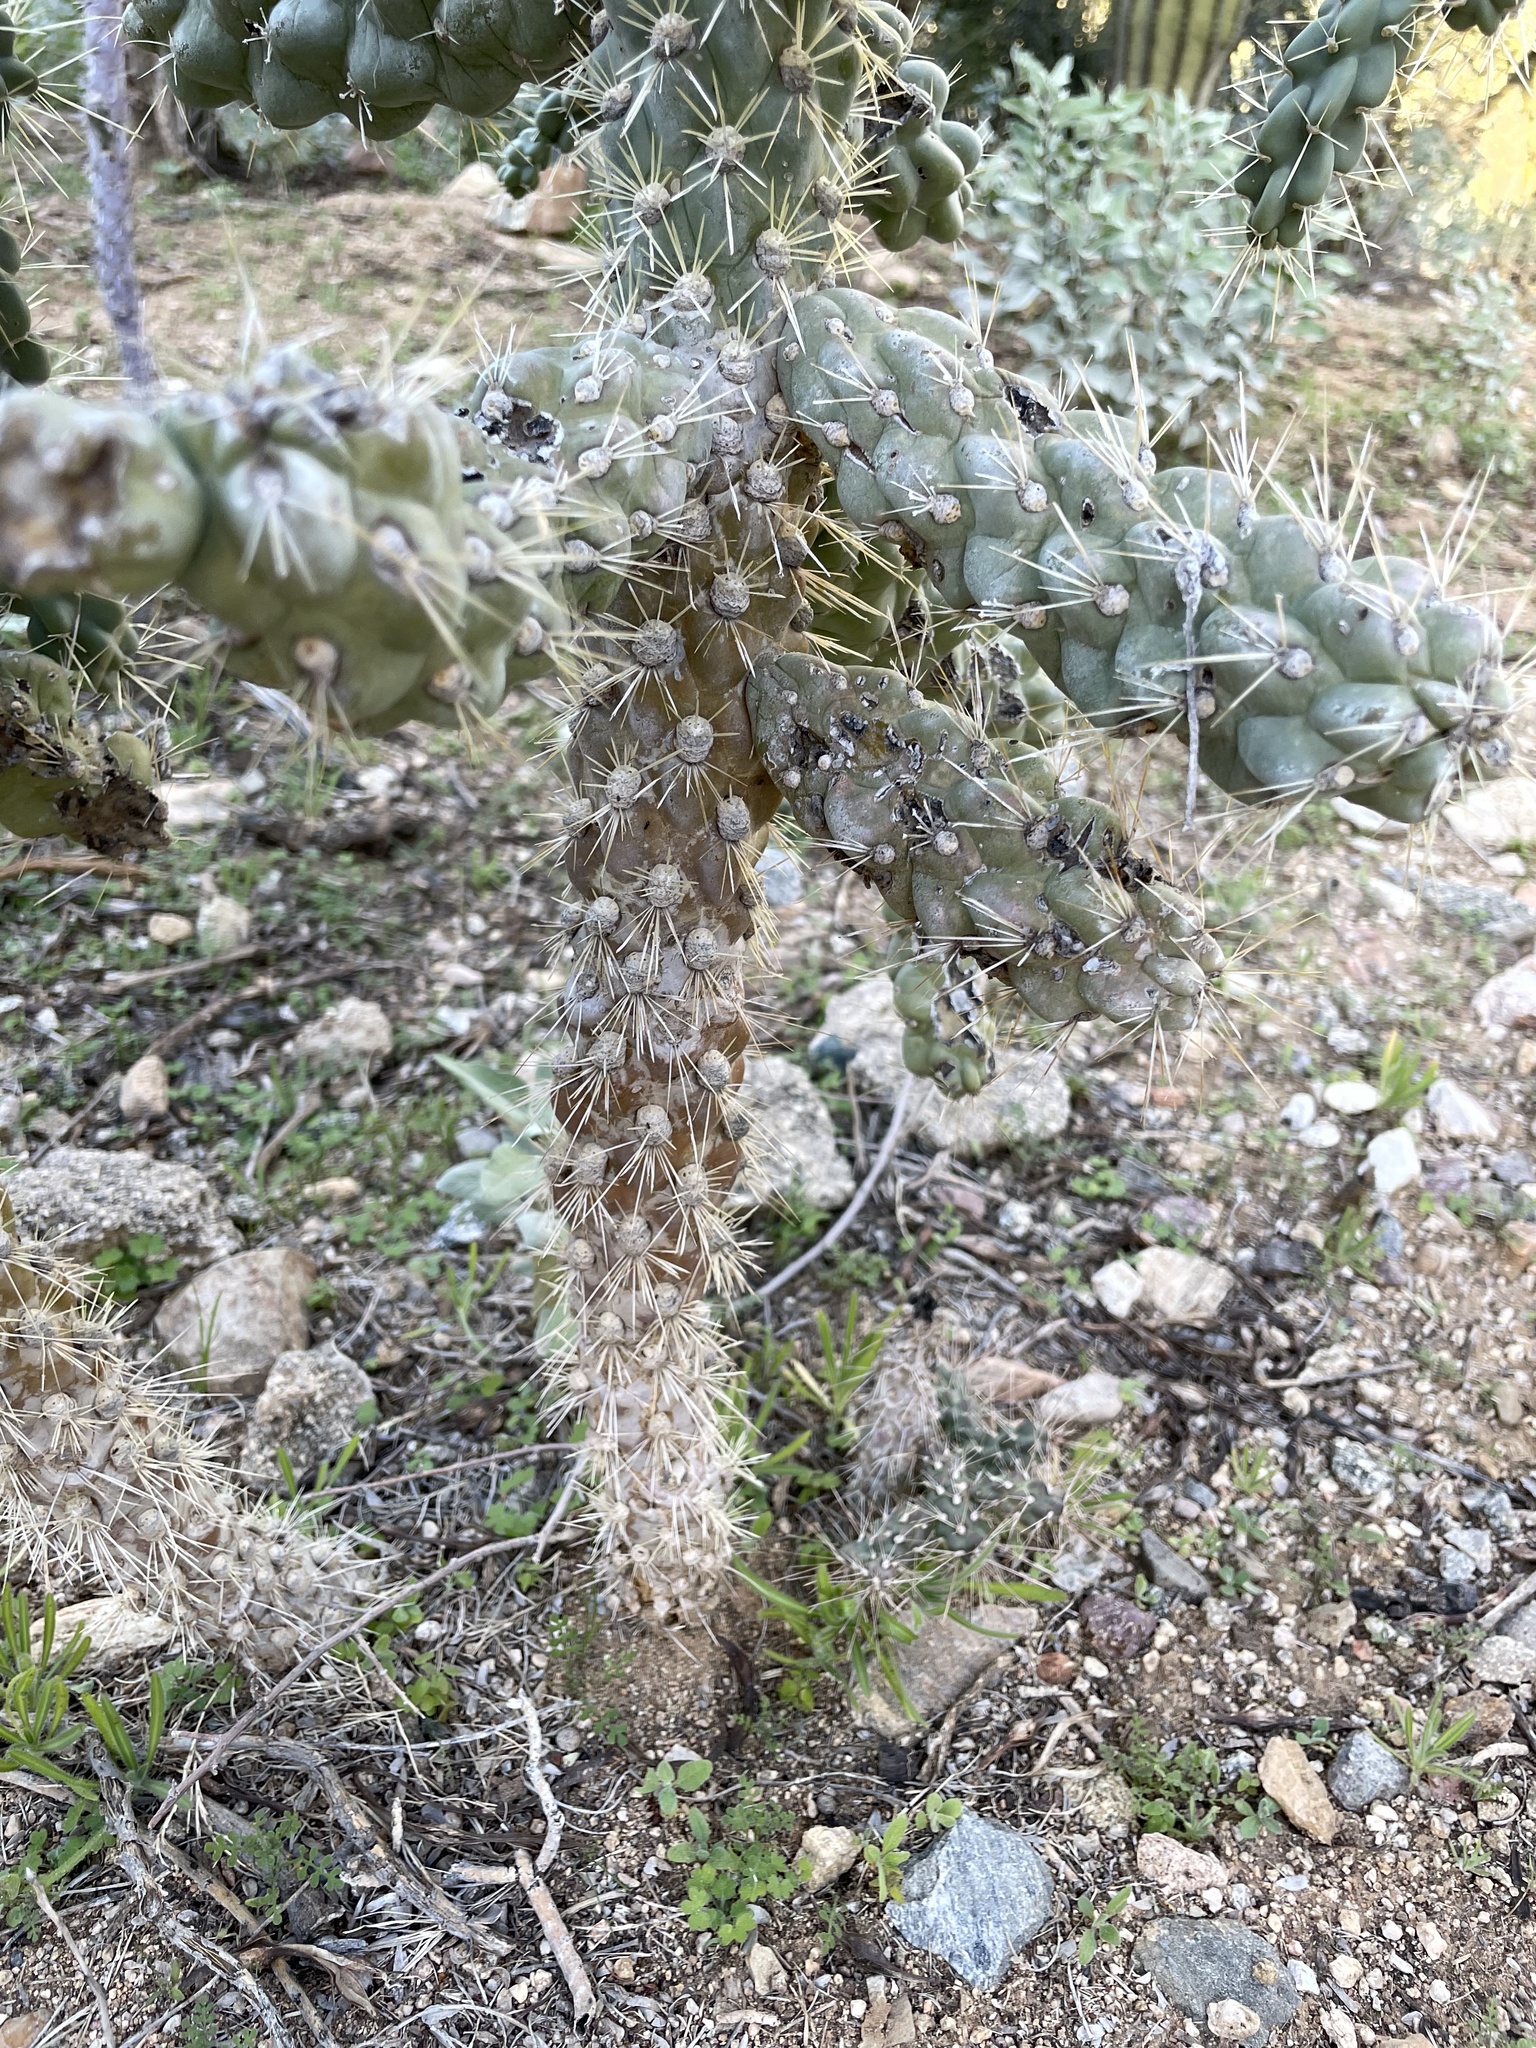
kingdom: Plantae
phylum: Tracheophyta
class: Magnoliopsida
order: Caryophyllales
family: Cactaceae
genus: Cylindropuntia
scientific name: Cylindropuntia fulgida
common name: Jumping cholla
